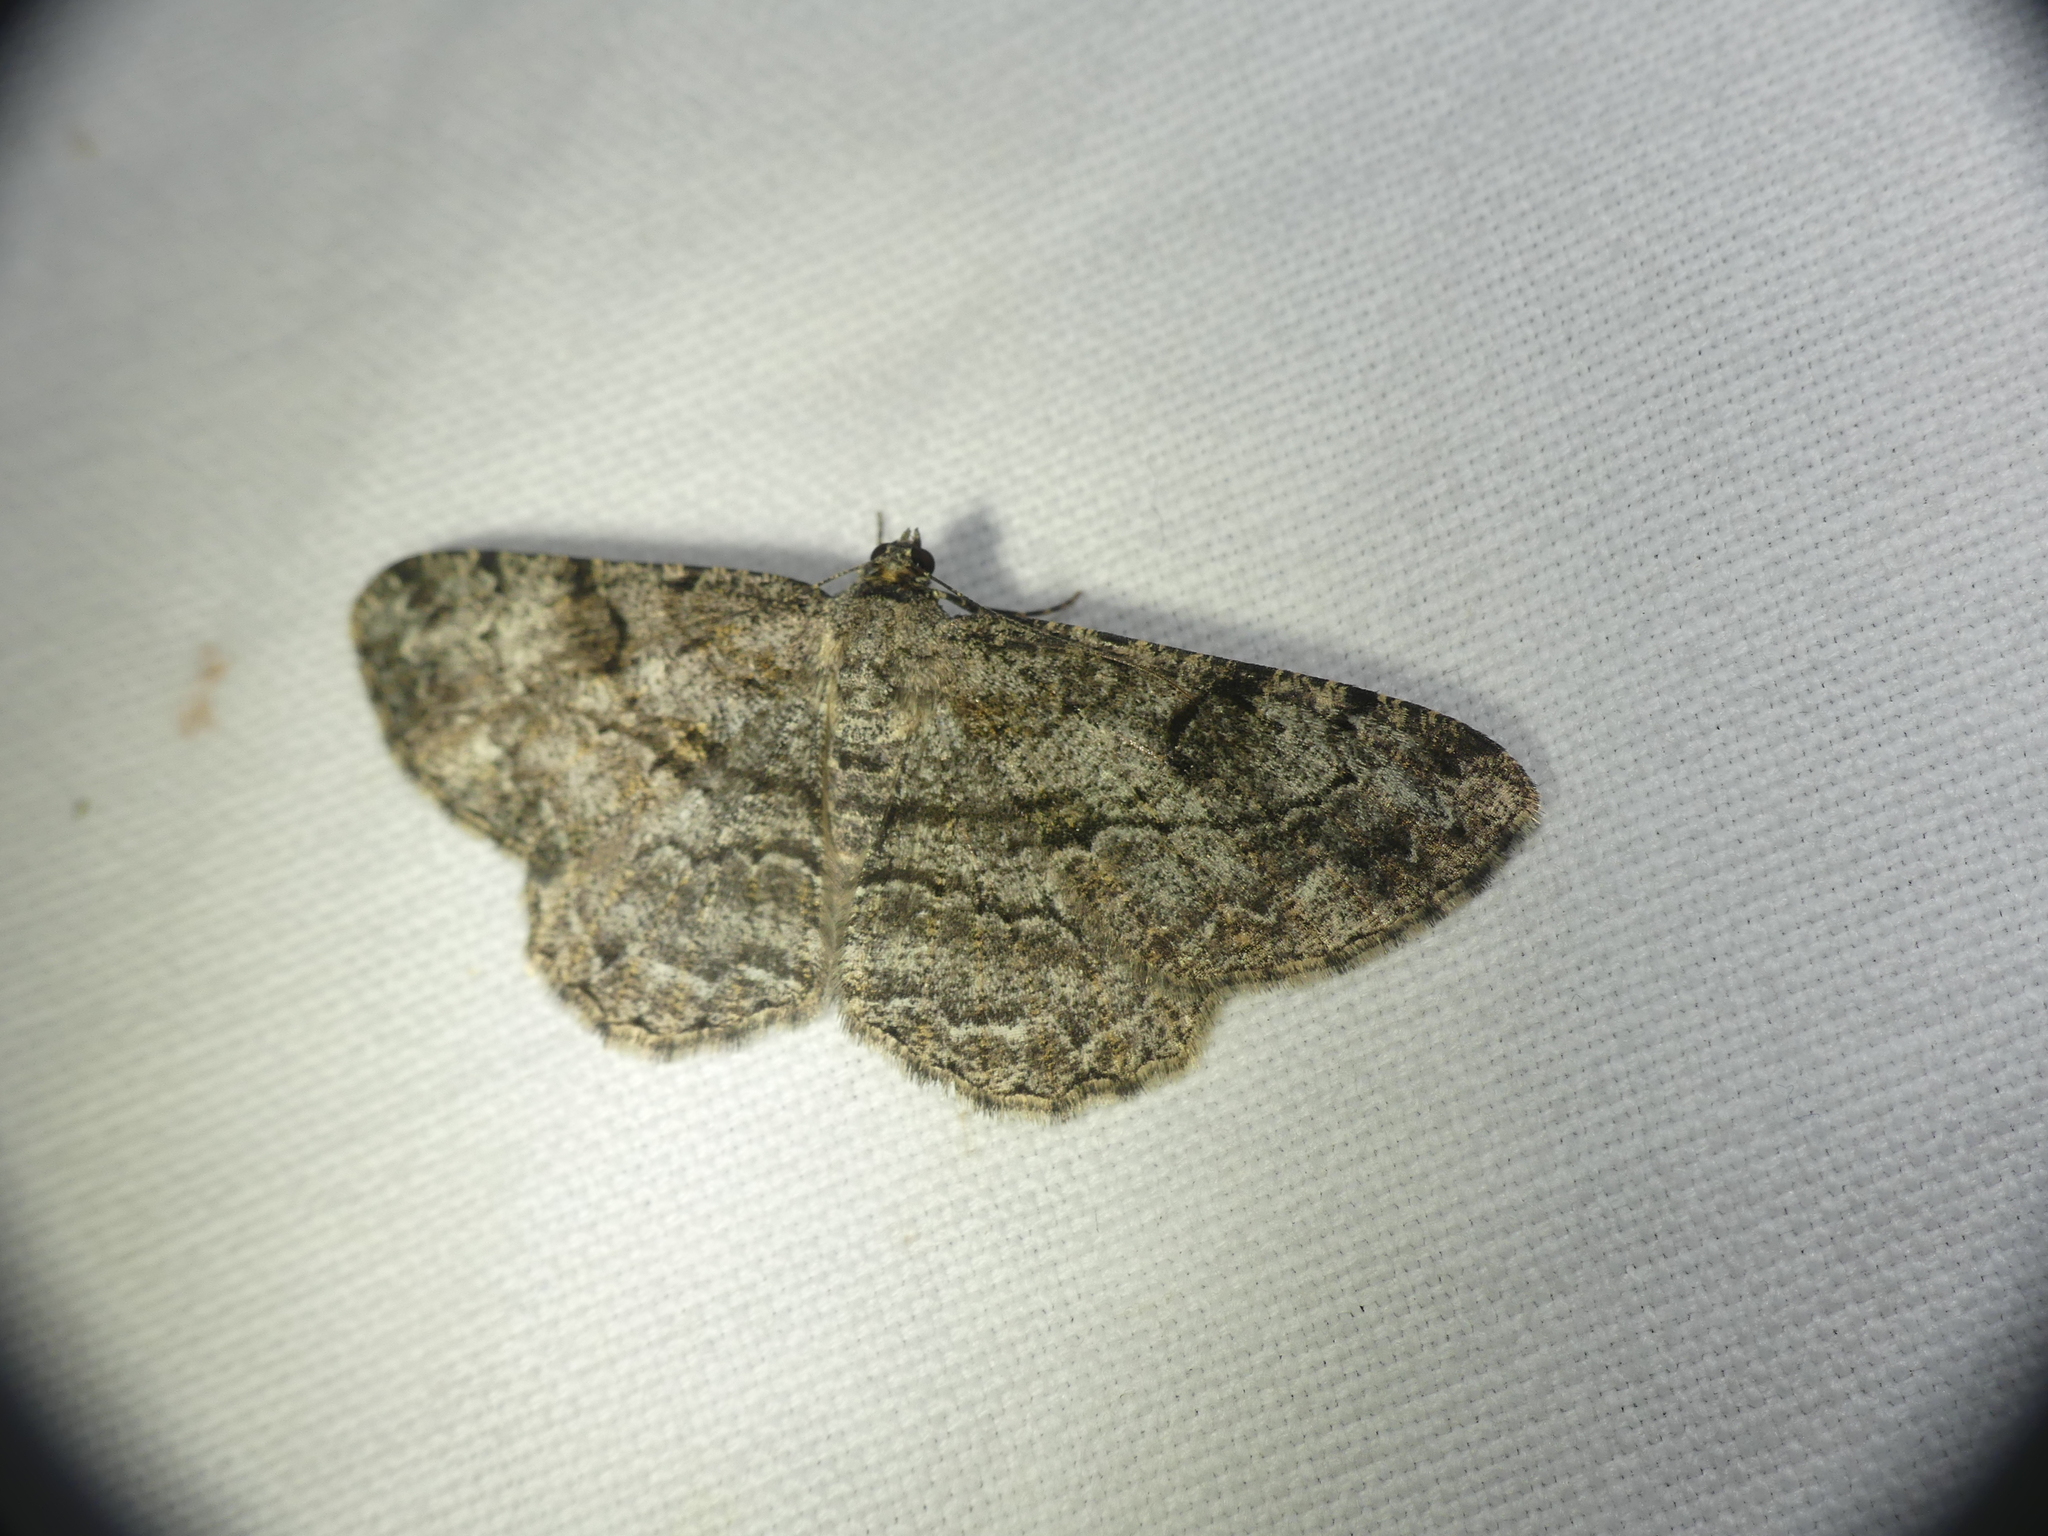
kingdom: Animalia
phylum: Arthropoda
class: Insecta
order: Lepidoptera
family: Geometridae
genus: Peribatodes
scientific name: Peribatodes rhomboidaria
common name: Willow beauty
